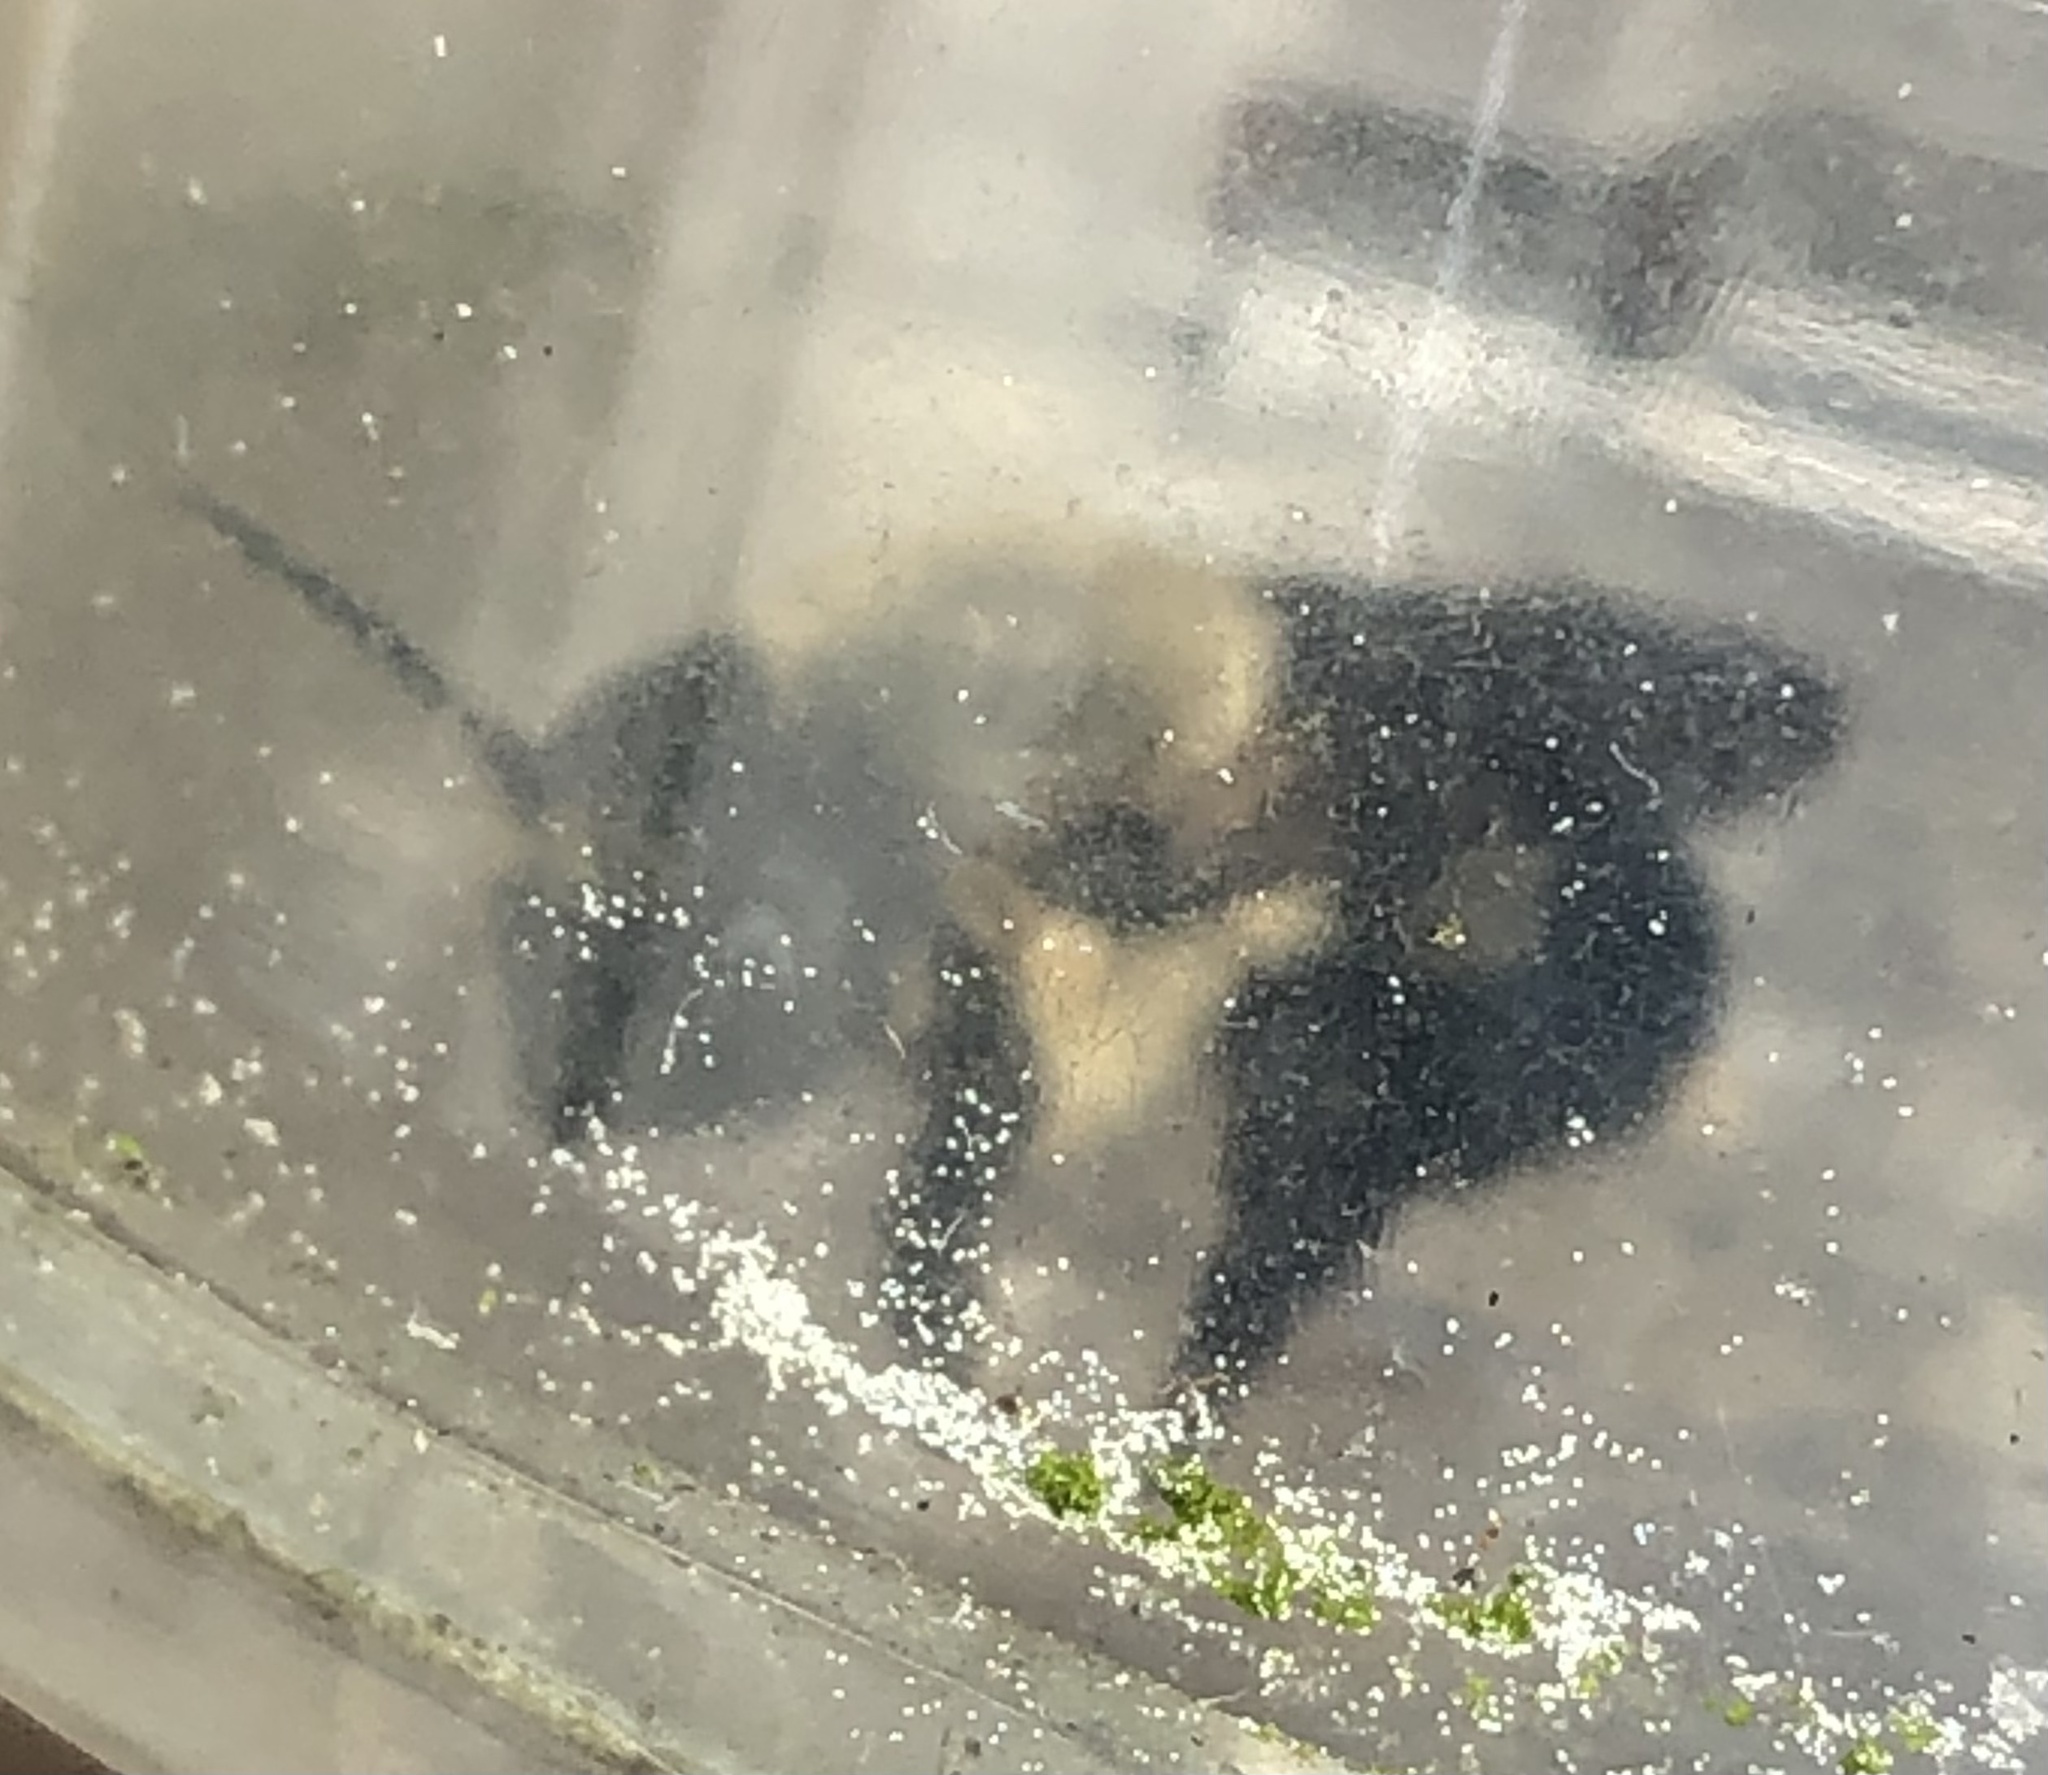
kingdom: Animalia
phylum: Arthropoda
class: Insecta
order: Hymenoptera
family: Megachilidae
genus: Megachile
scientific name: Megachile mucida
